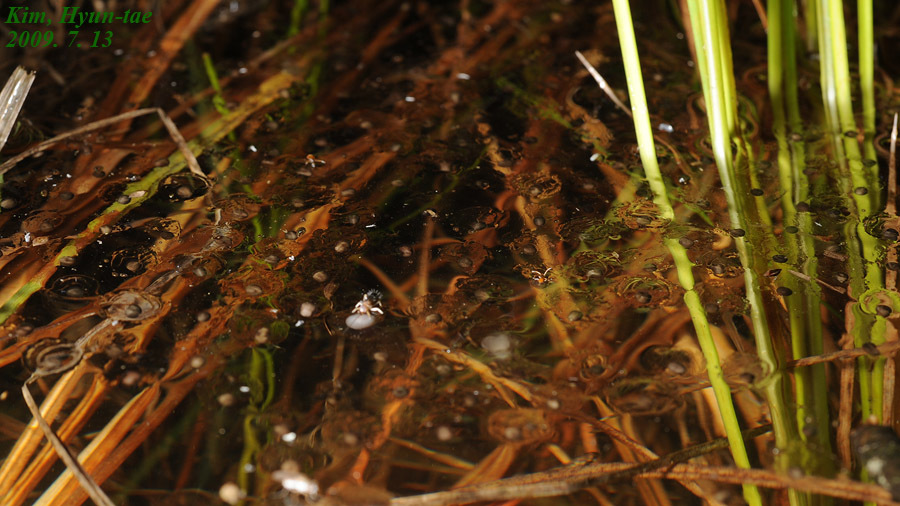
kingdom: Animalia
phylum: Chordata
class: Amphibia
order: Anura
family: Microhylidae
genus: Kaloula
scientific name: Kaloula borealis
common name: Boreal digging frog
